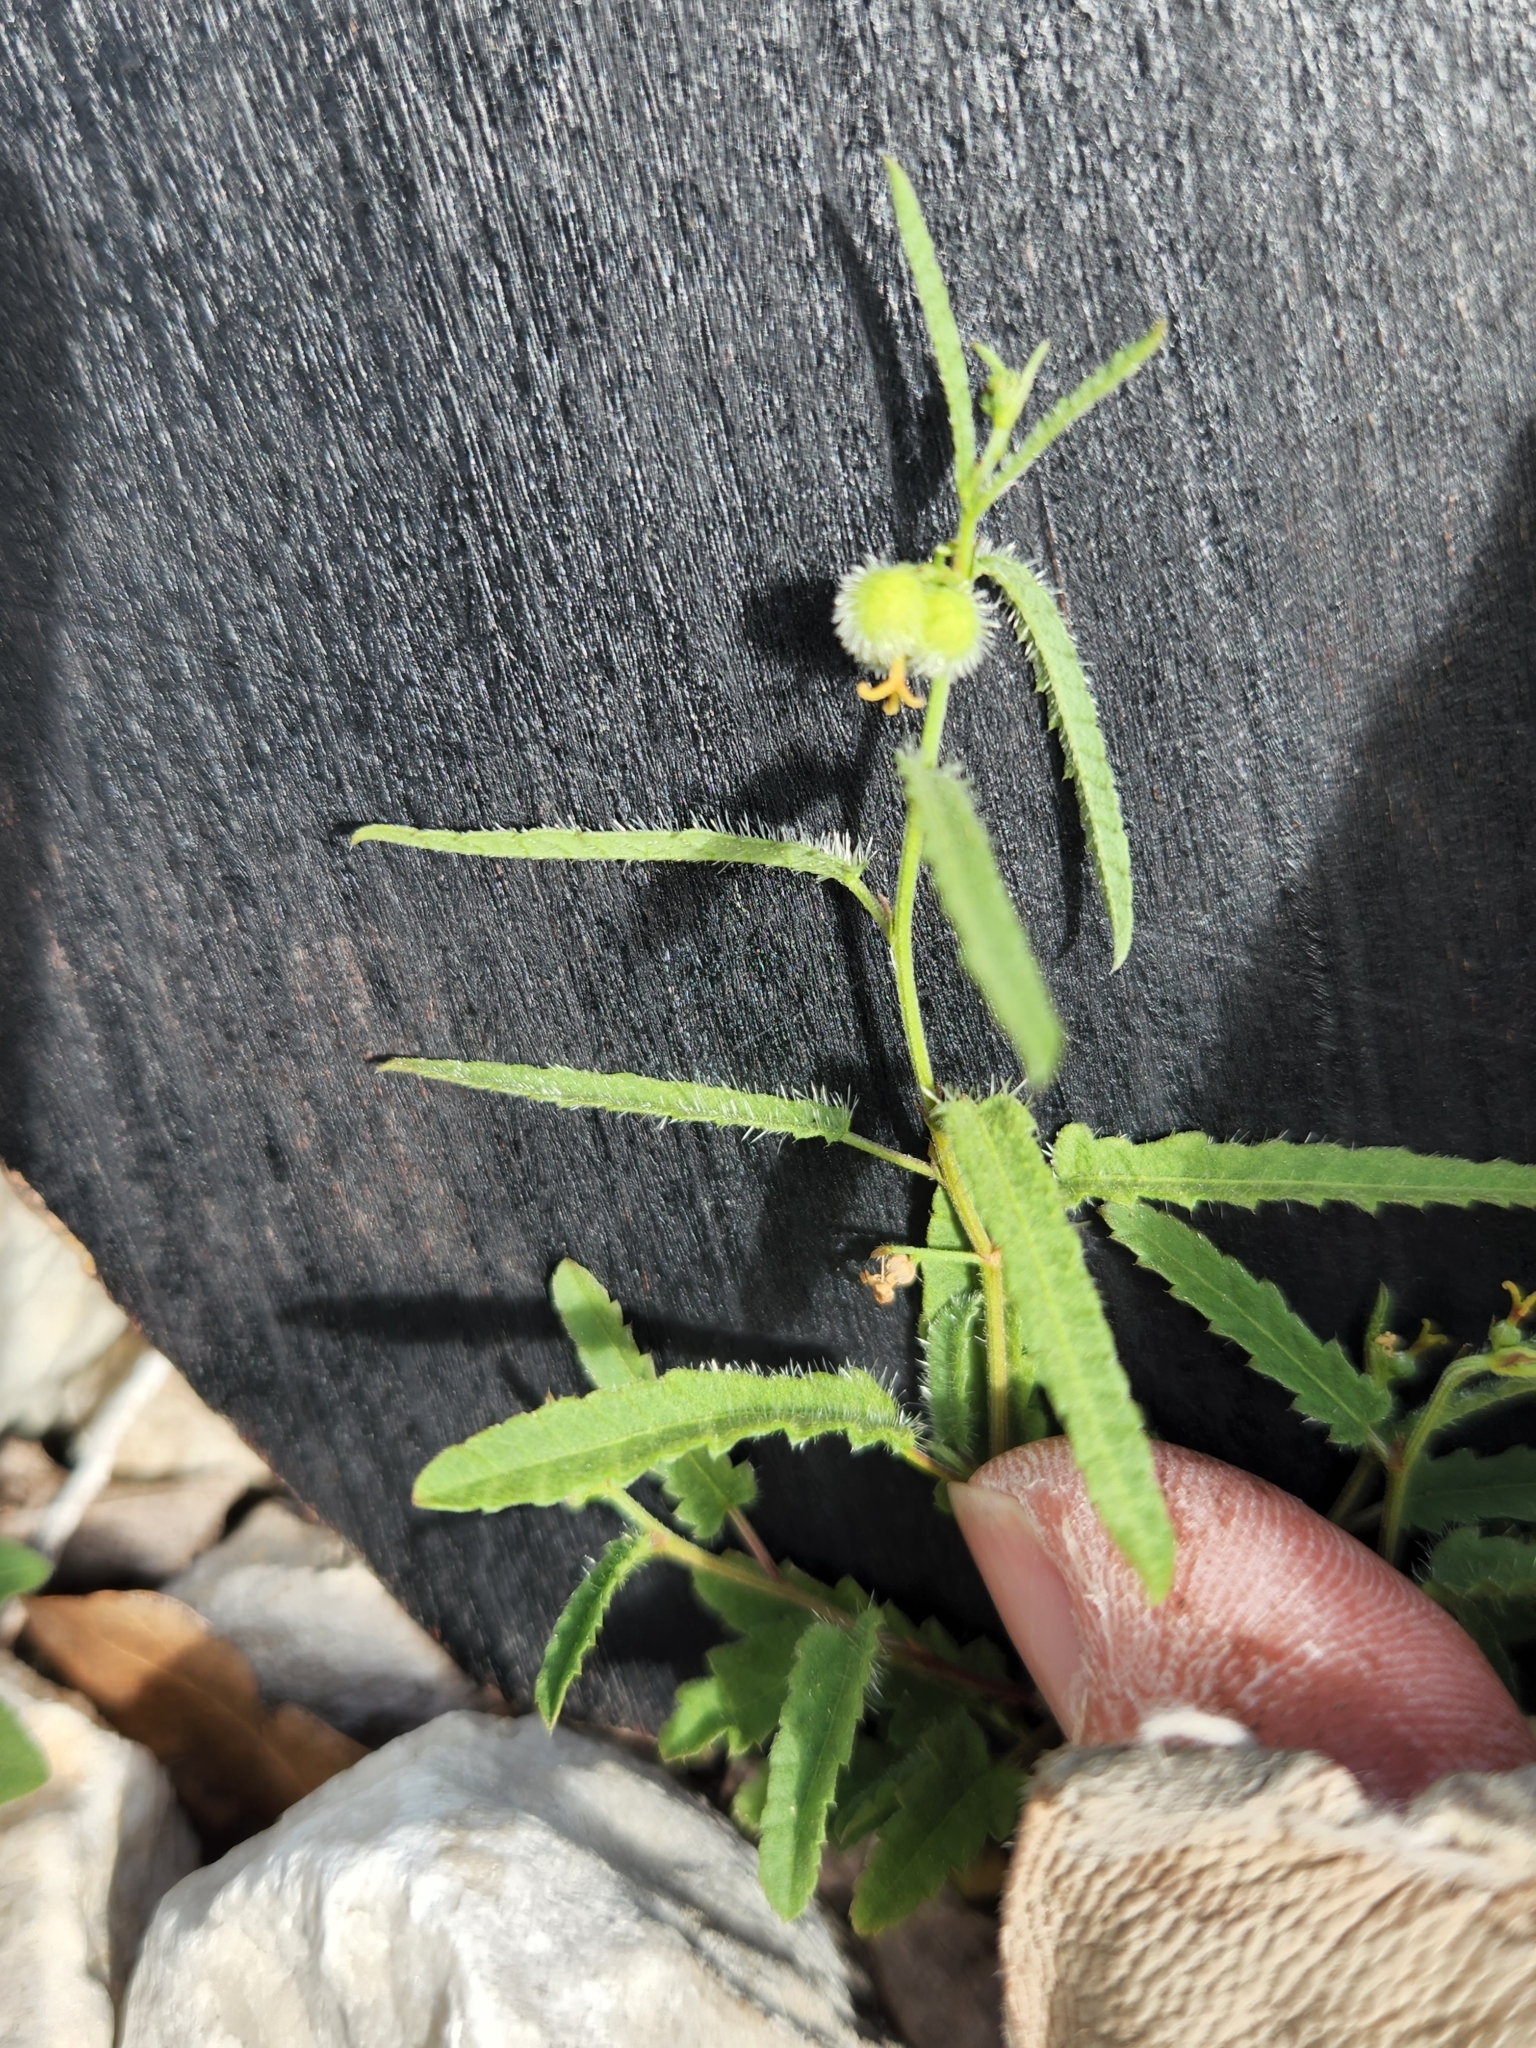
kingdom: Plantae
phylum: Tracheophyta
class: Magnoliopsida
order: Malpighiales
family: Euphorbiaceae
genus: Tragia
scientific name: Tragia ramosa
